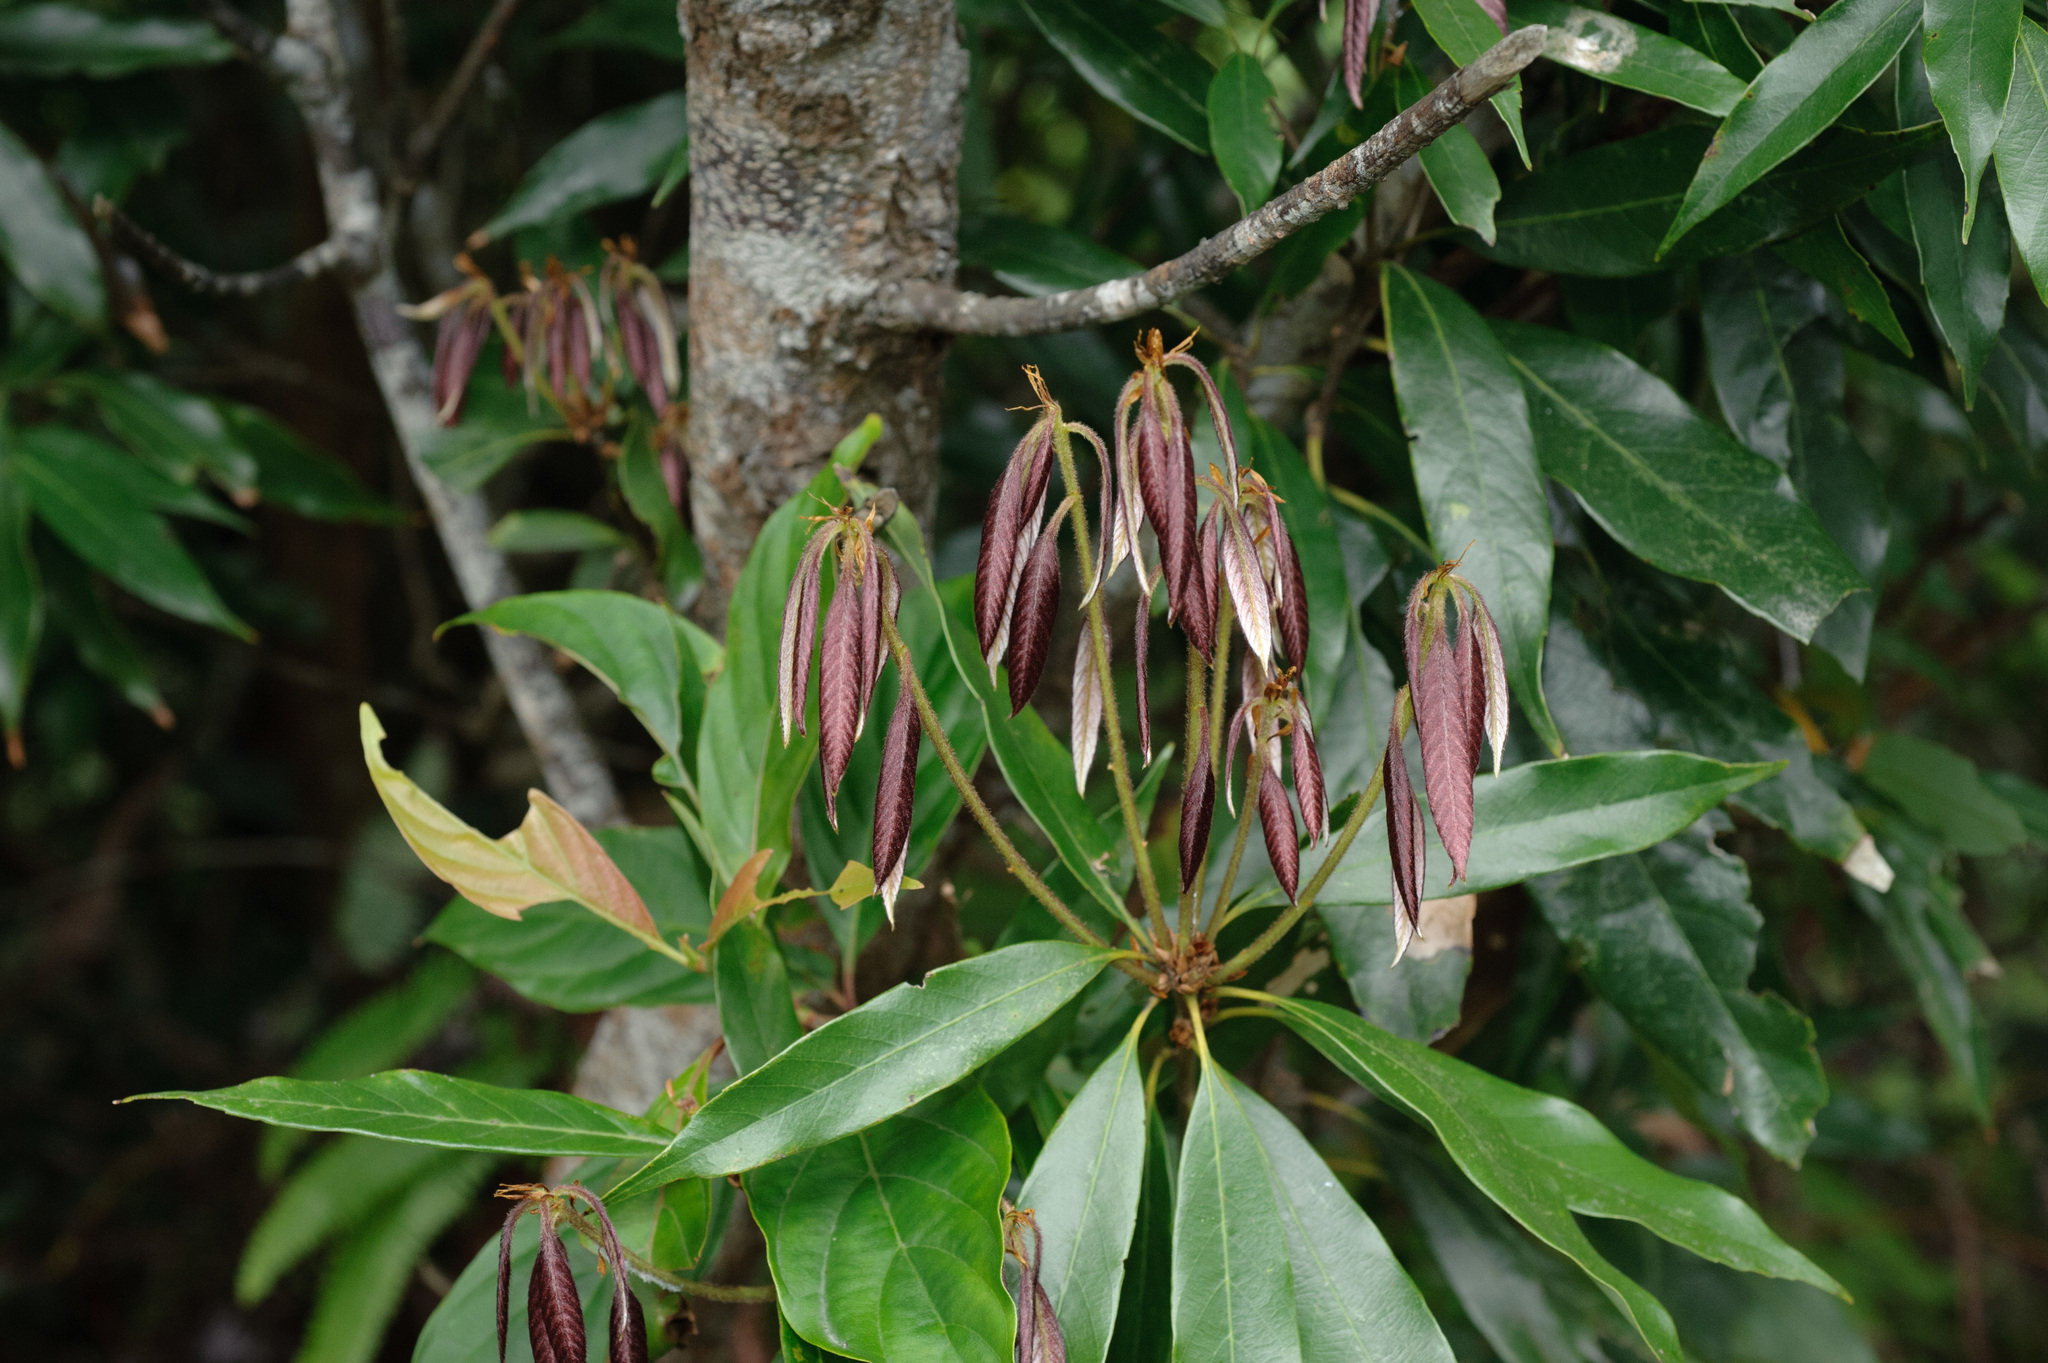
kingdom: Plantae
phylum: Tracheophyta
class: Magnoliopsida
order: Fagales
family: Fagaceae
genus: Quercus
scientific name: Quercus pachyloma
